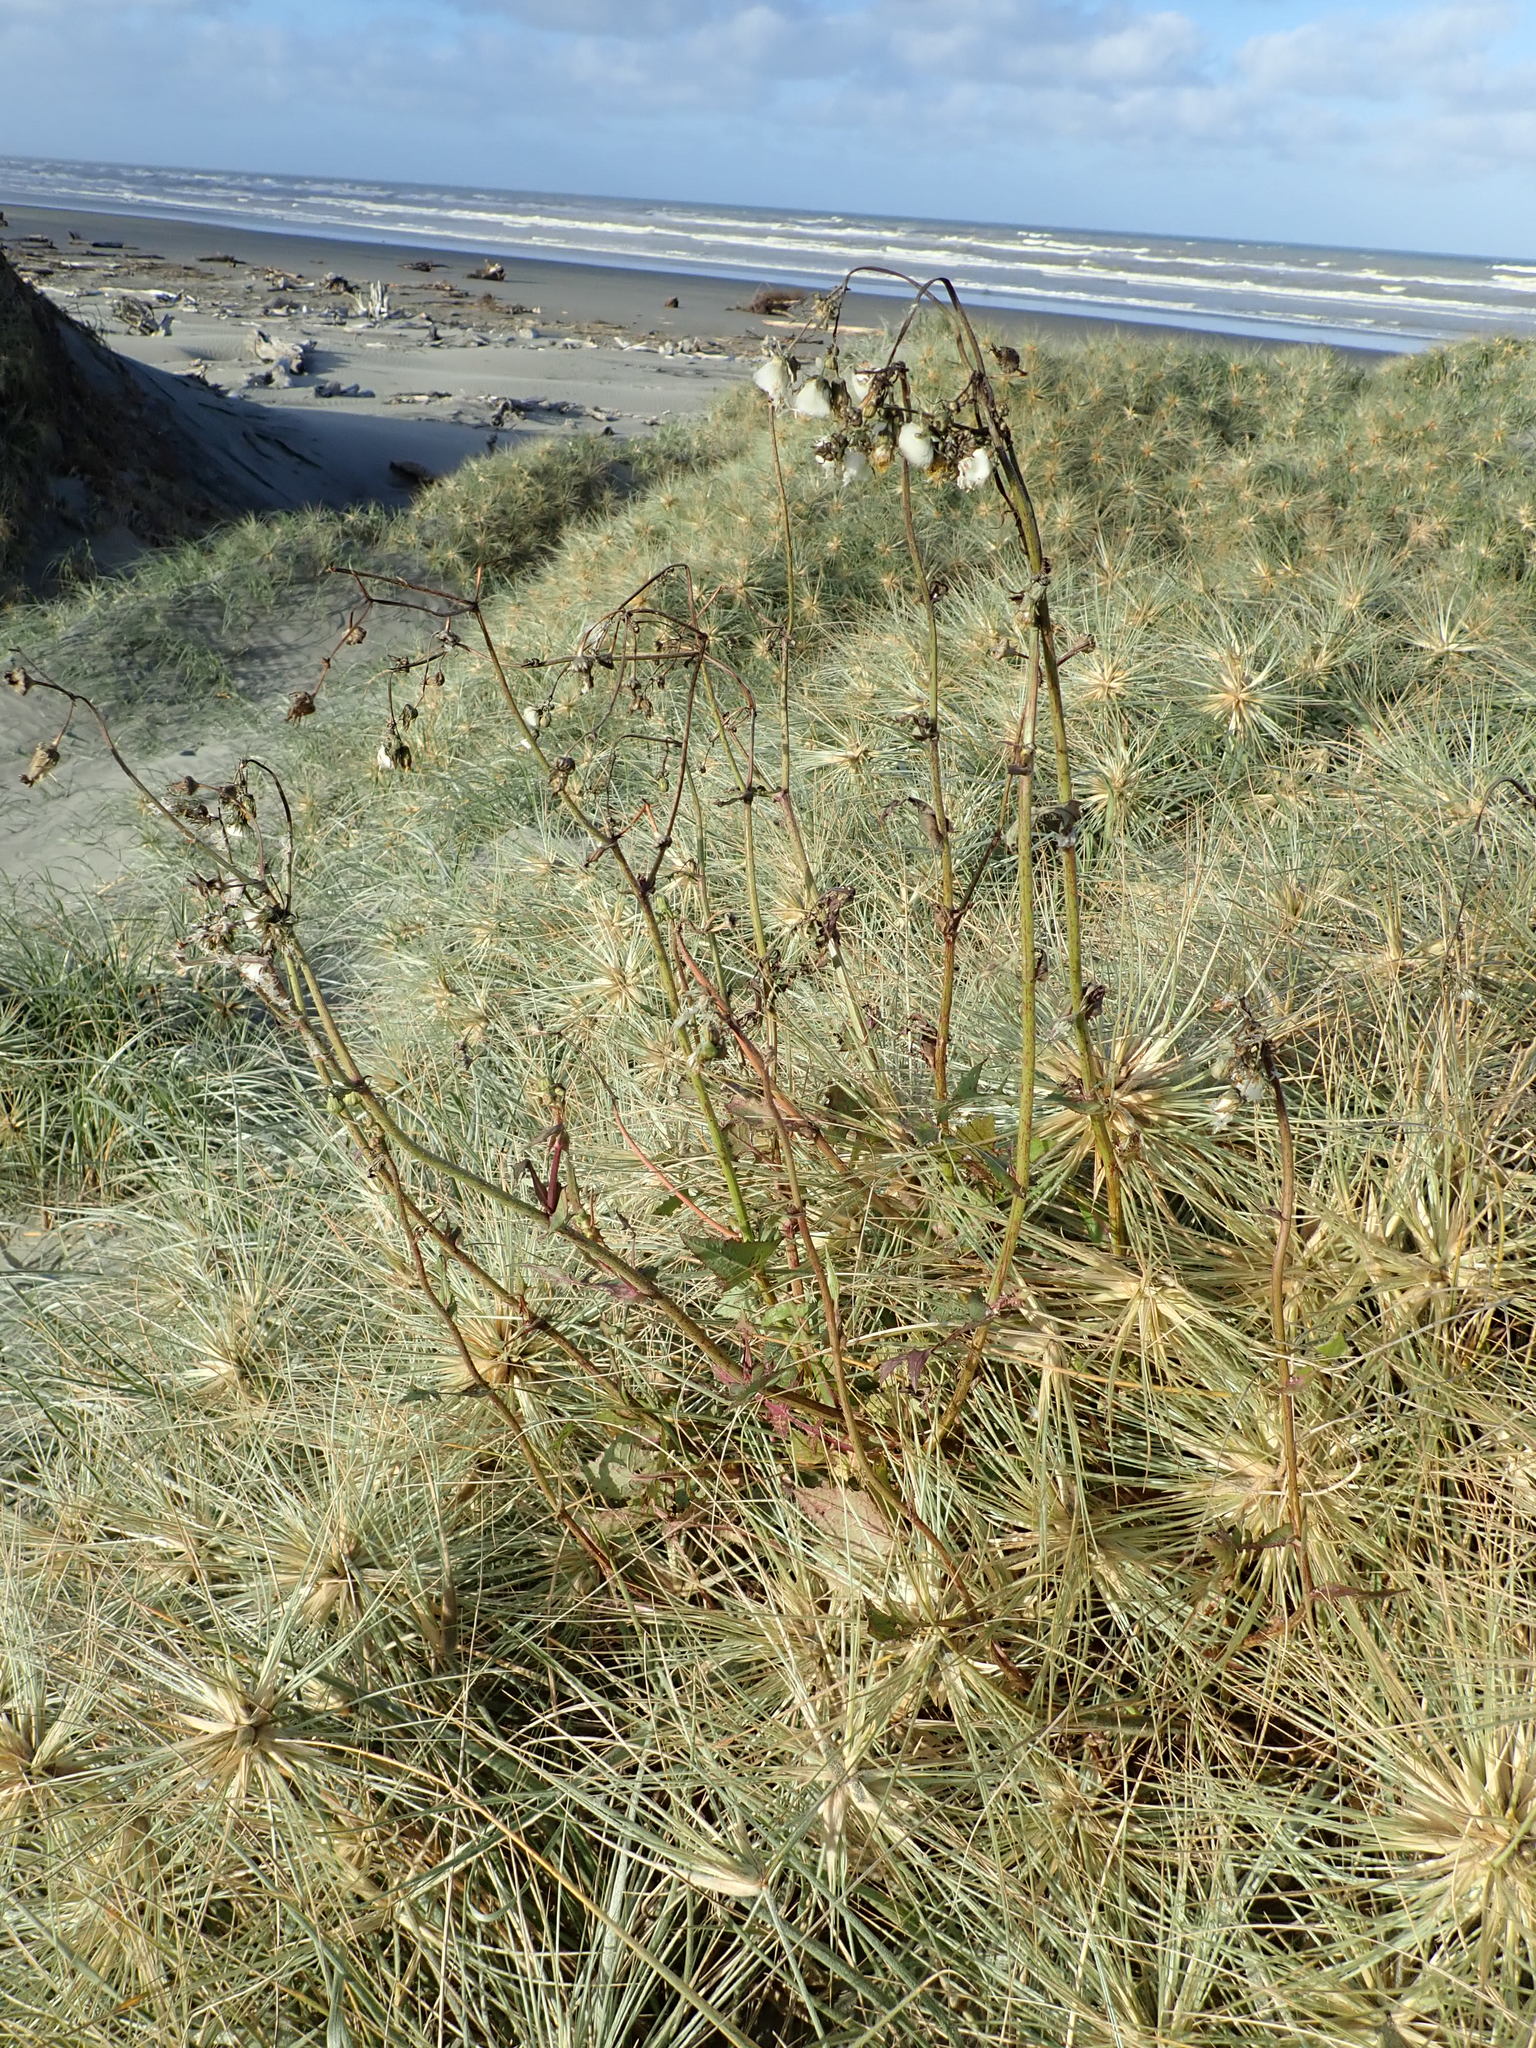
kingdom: Plantae
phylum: Tracheophyta
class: Magnoliopsida
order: Asterales
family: Asteraceae
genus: Sonchus
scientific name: Sonchus oleraceus
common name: Common sowthistle
